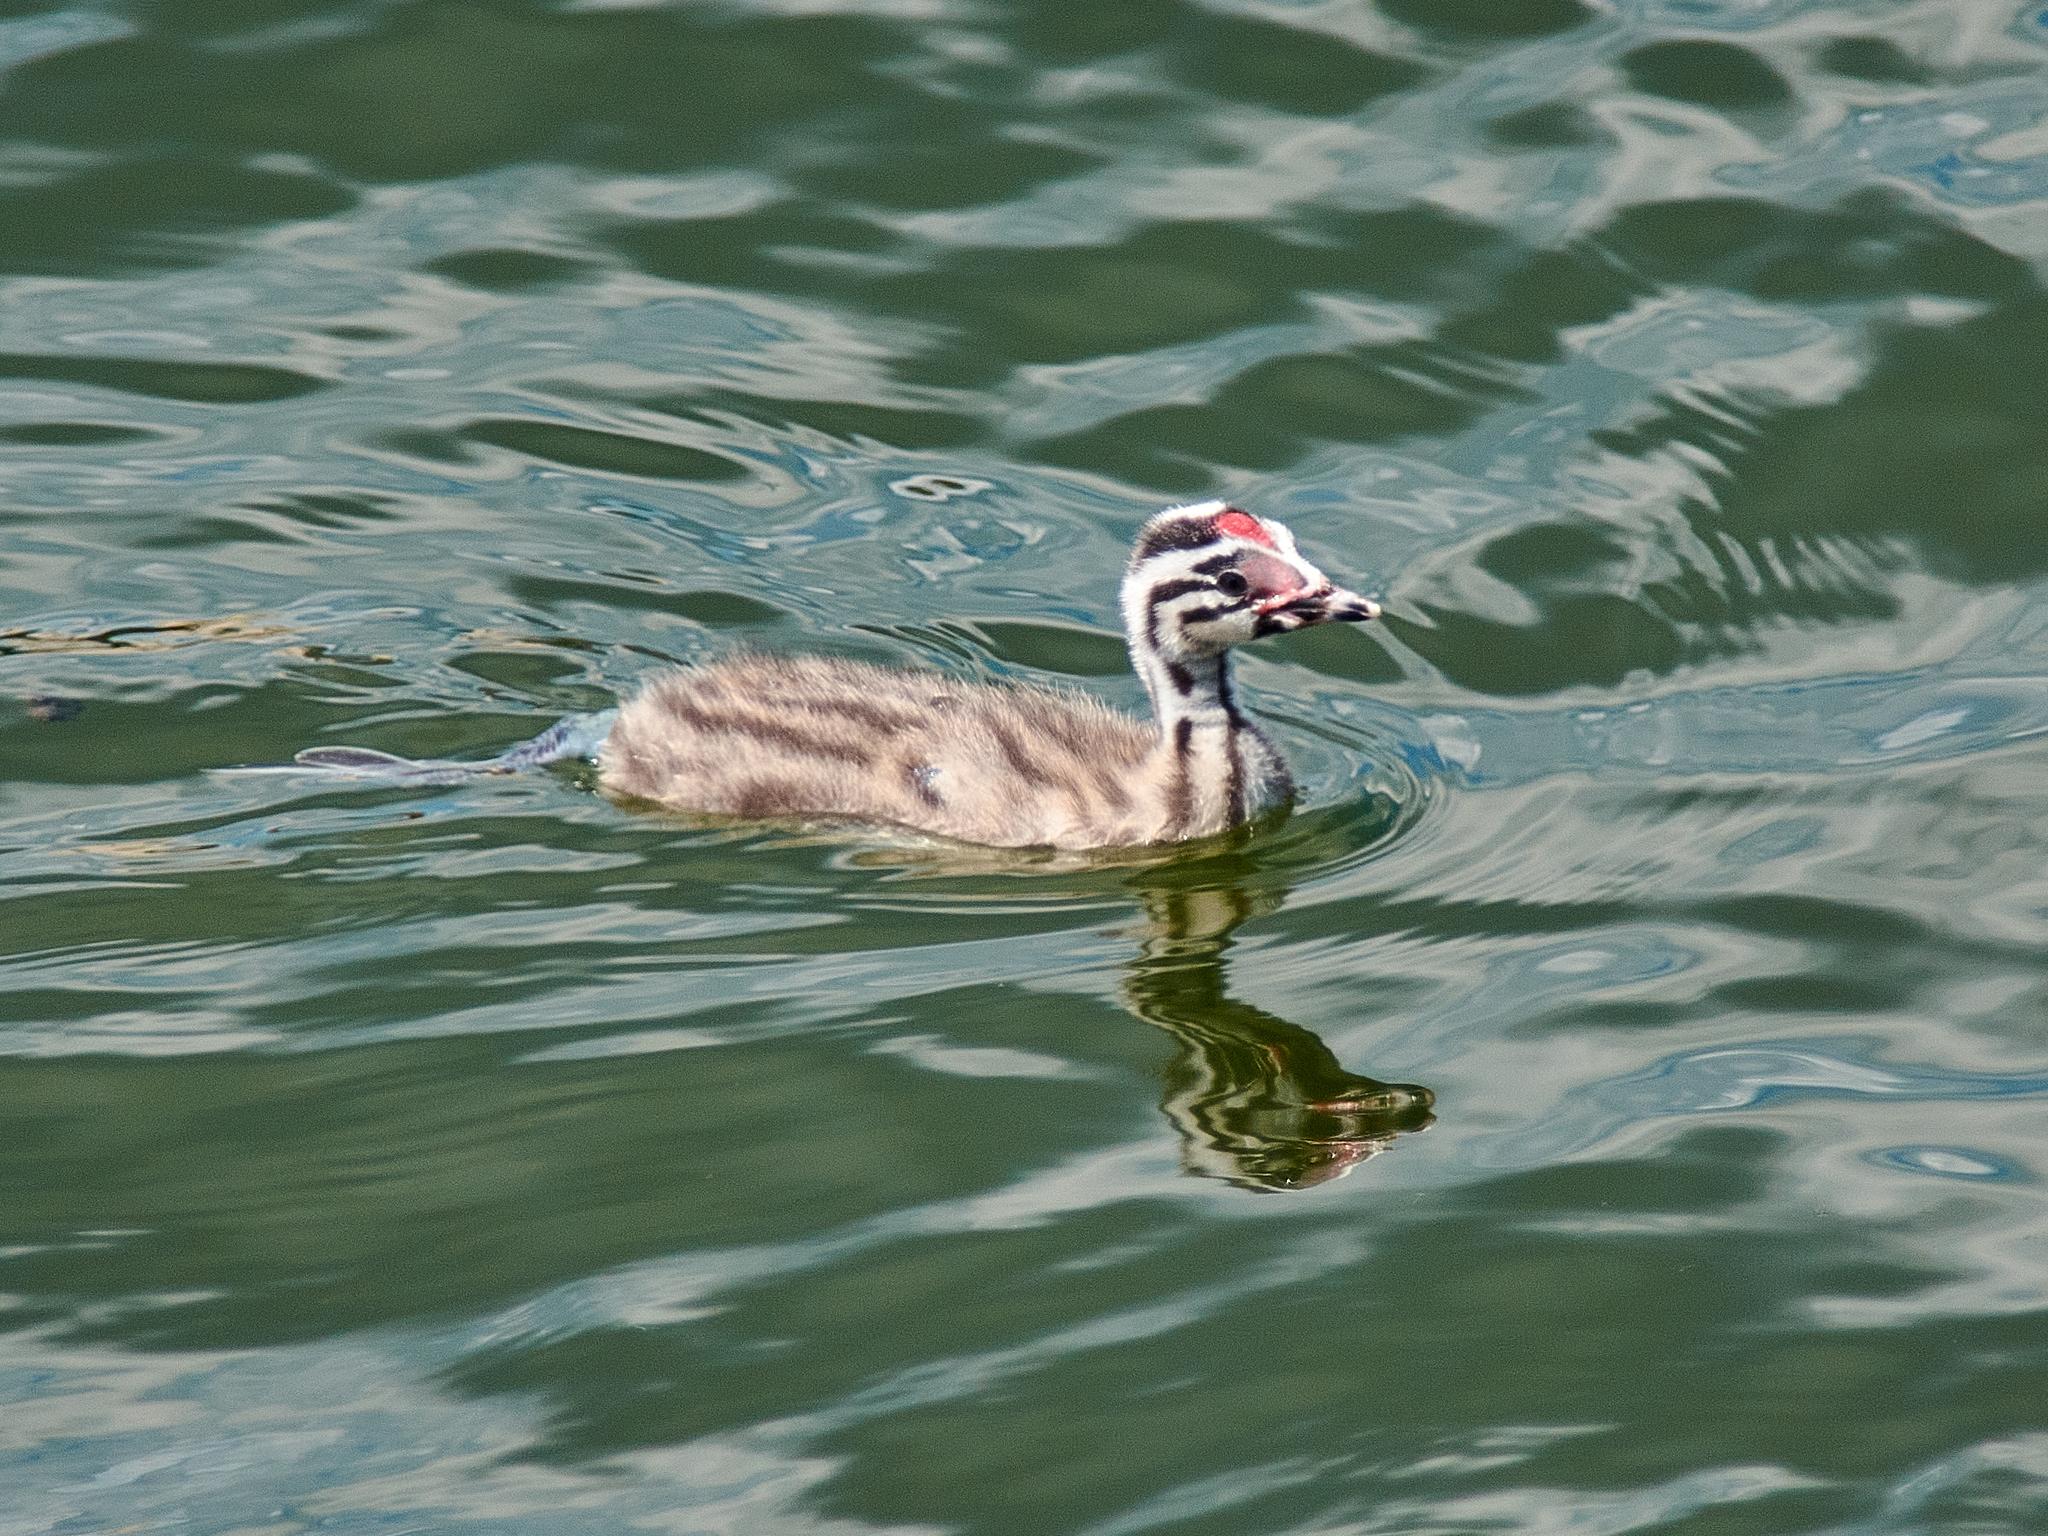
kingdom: Animalia
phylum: Chordata
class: Aves
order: Podicipediformes
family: Podicipedidae
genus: Podiceps
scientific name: Podiceps cristatus
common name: Great crested grebe
